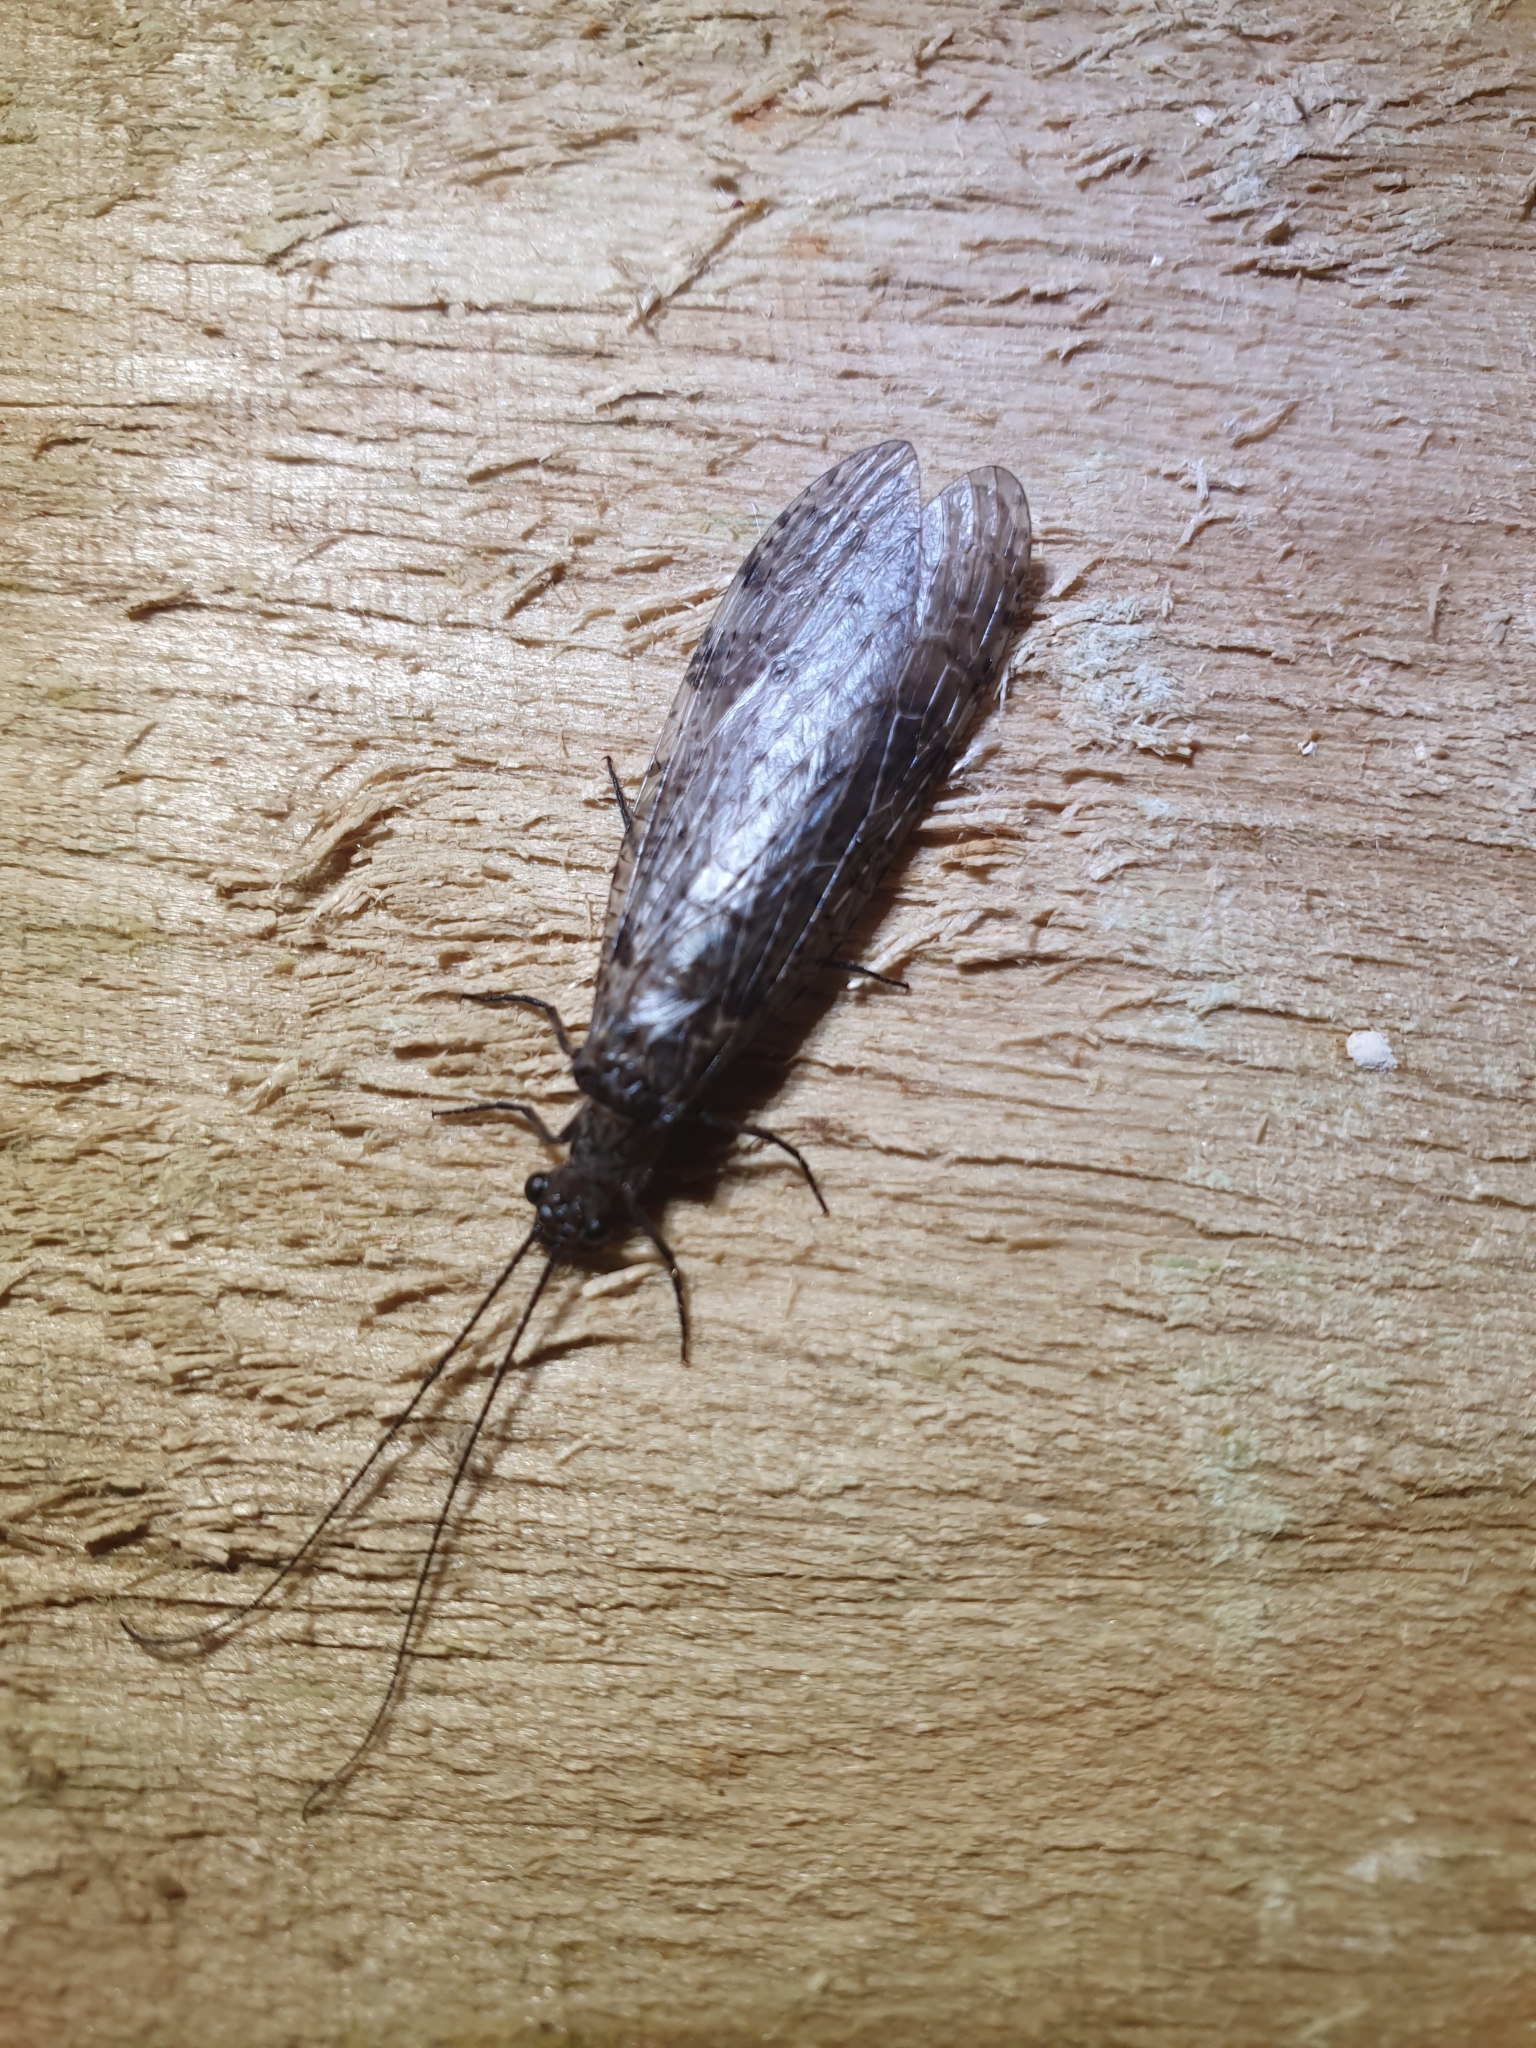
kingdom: Animalia
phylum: Arthropoda
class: Insecta
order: Megaloptera
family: Corydalidae
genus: Archichauliodes
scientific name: Archichauliodes diversus
